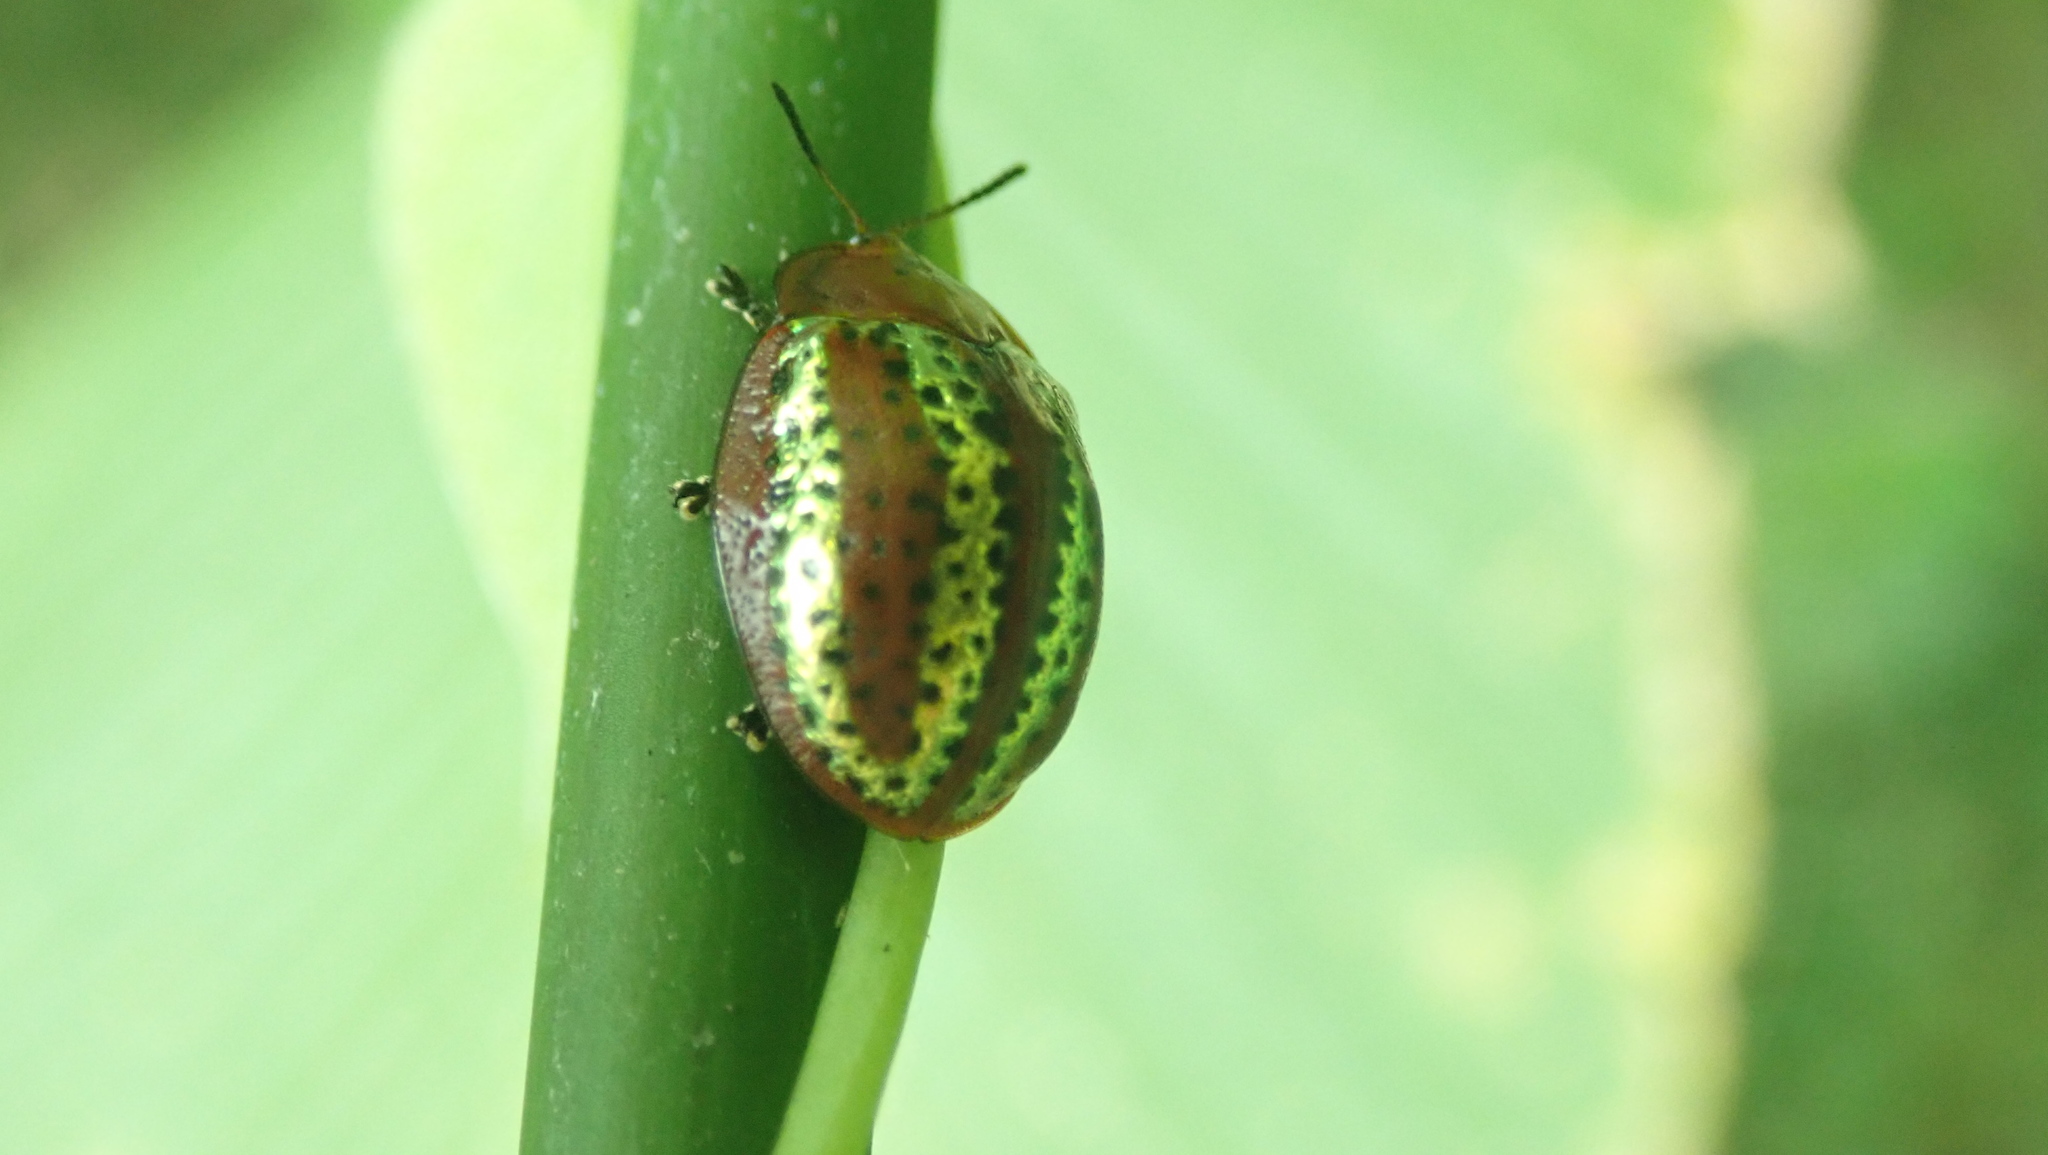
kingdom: Animalia
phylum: Arthropoda
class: Insecta
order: Coleoptera
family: Chrysomelidae
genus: Chelymorpha
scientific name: Chelymorpha alternans
